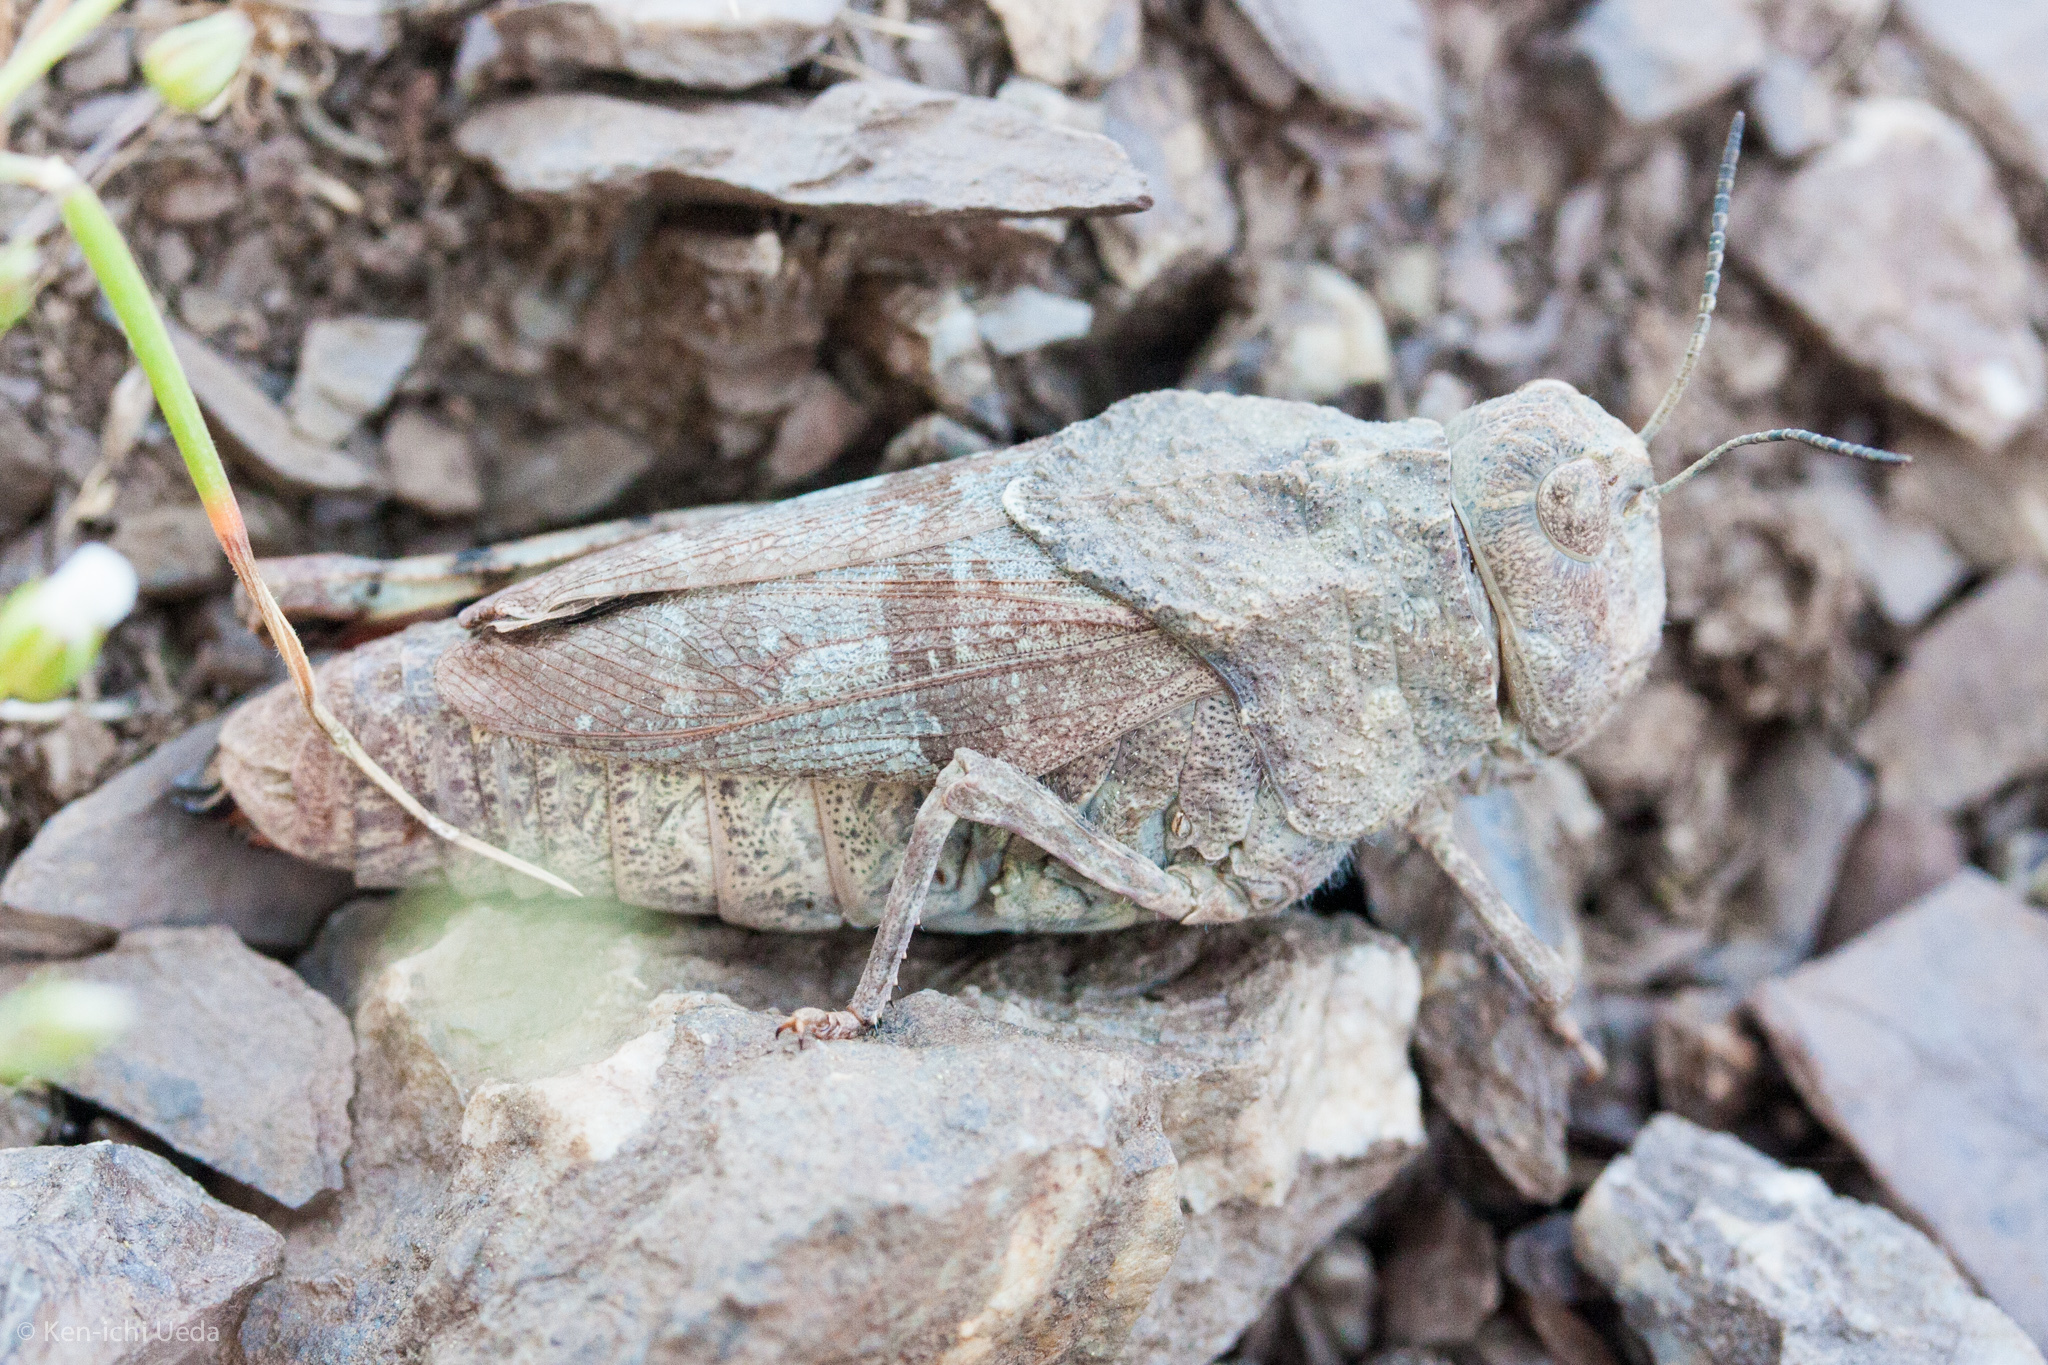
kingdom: Animalia
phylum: Arthropoda
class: Insecta
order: Orthoptera
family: Acrididae
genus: Agymnastus
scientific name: Agymnastus ingens
